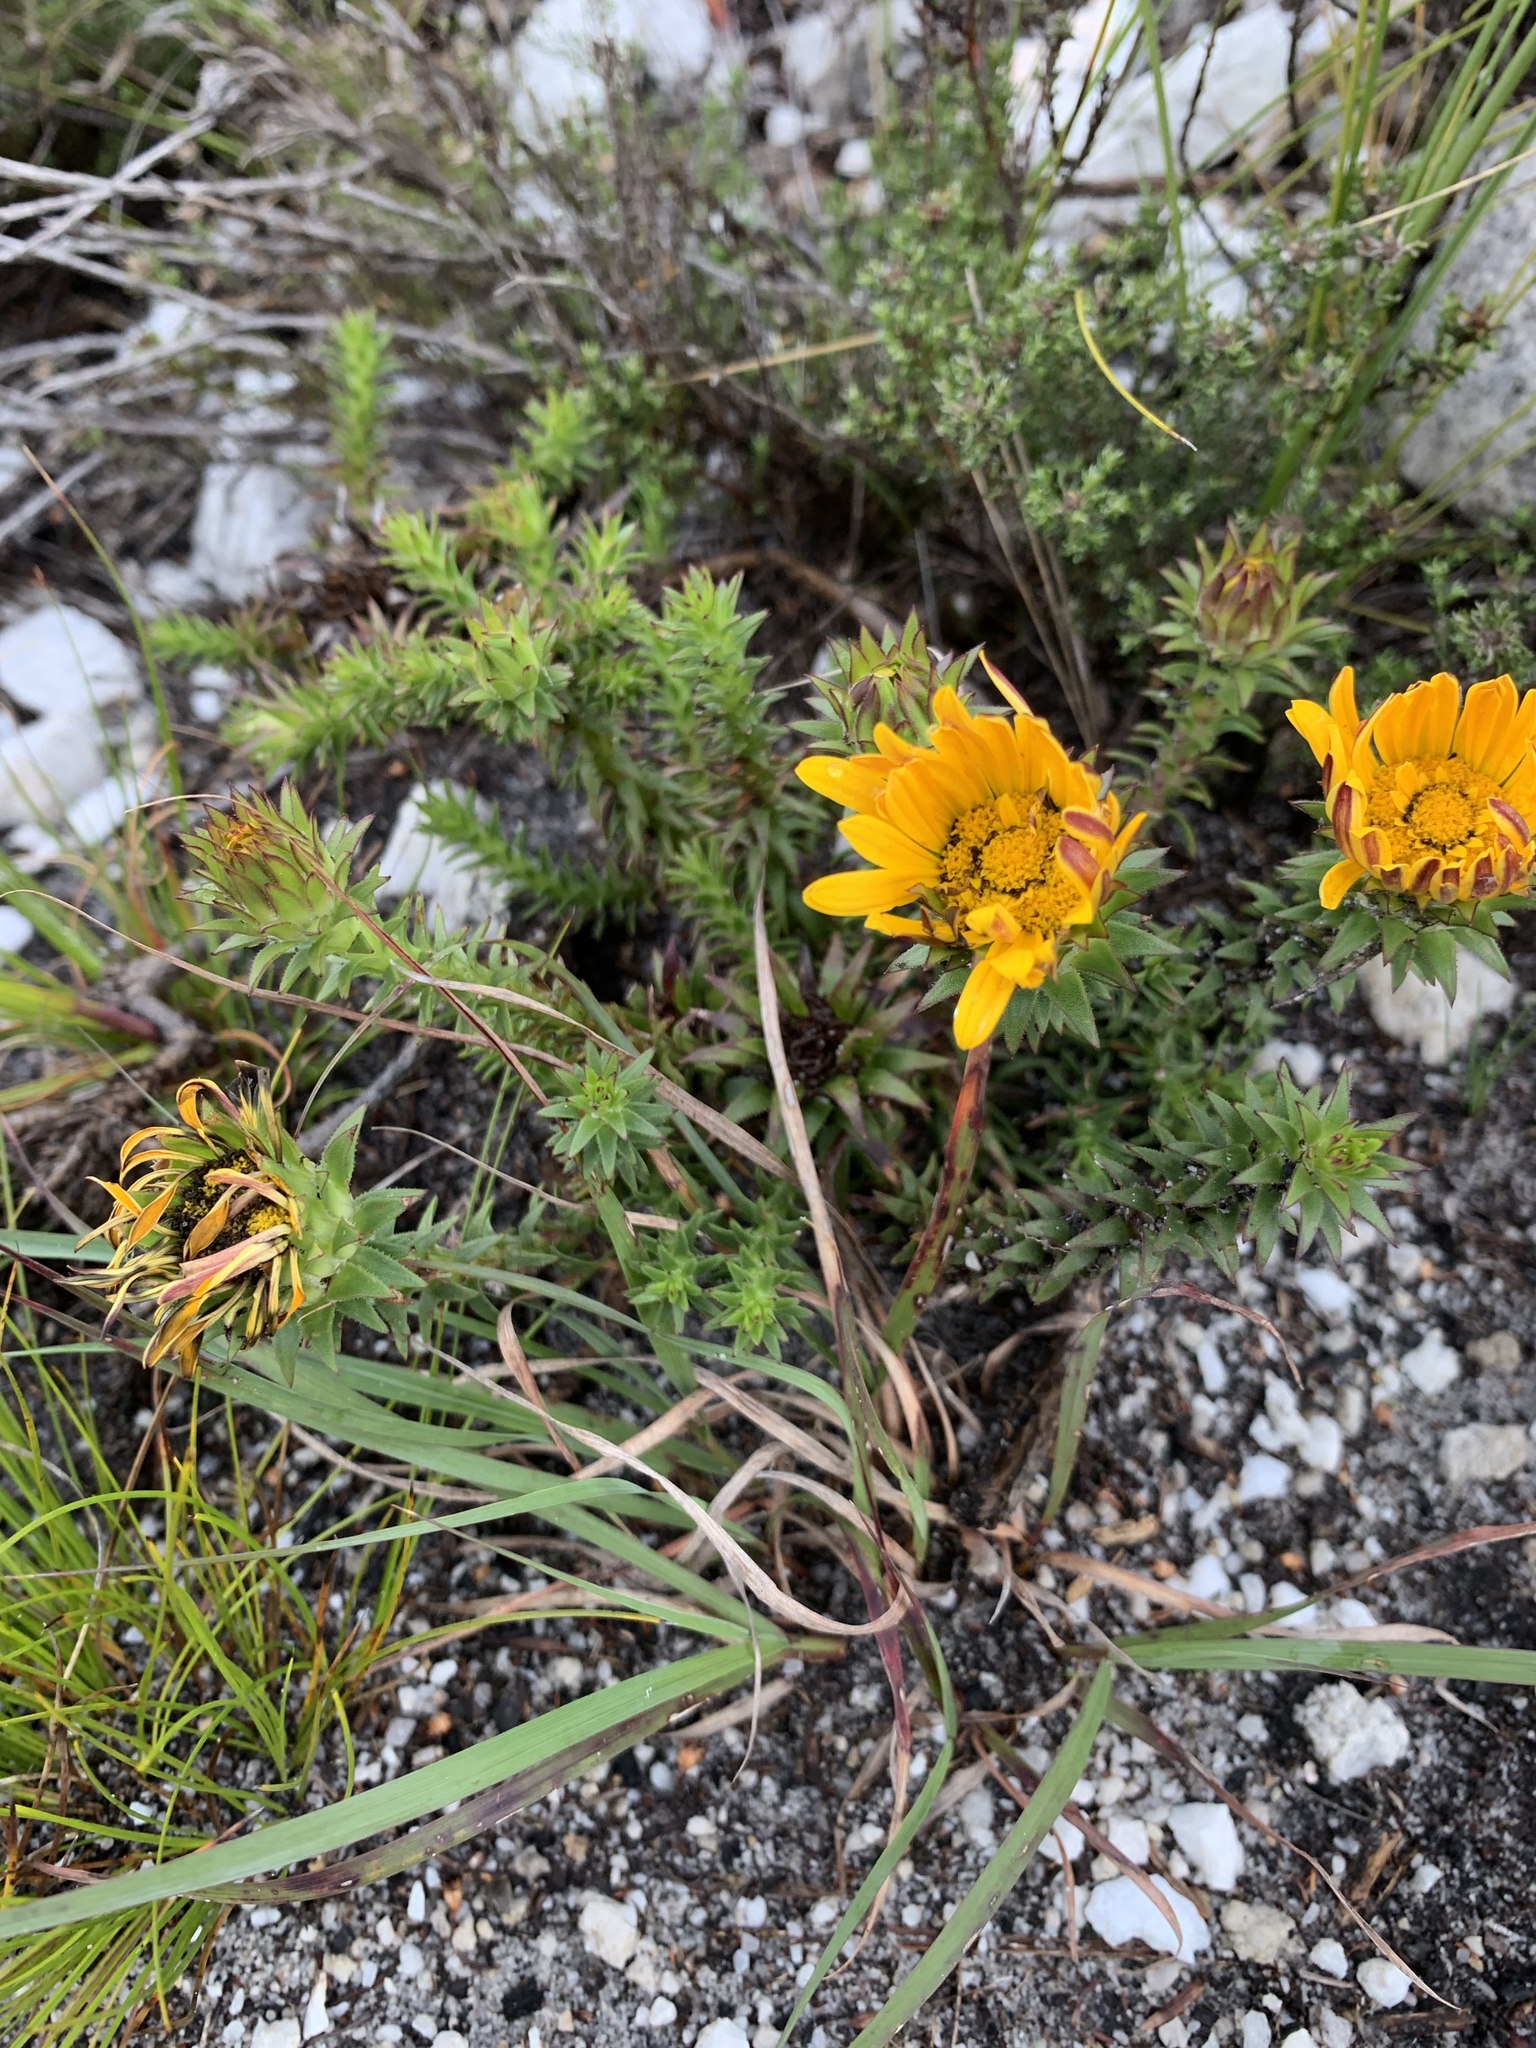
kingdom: Plantae
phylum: Tracheophyta
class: Magnoliopsida
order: Asterales
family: Asteraceae
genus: Oedera
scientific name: Oedera imbricata
